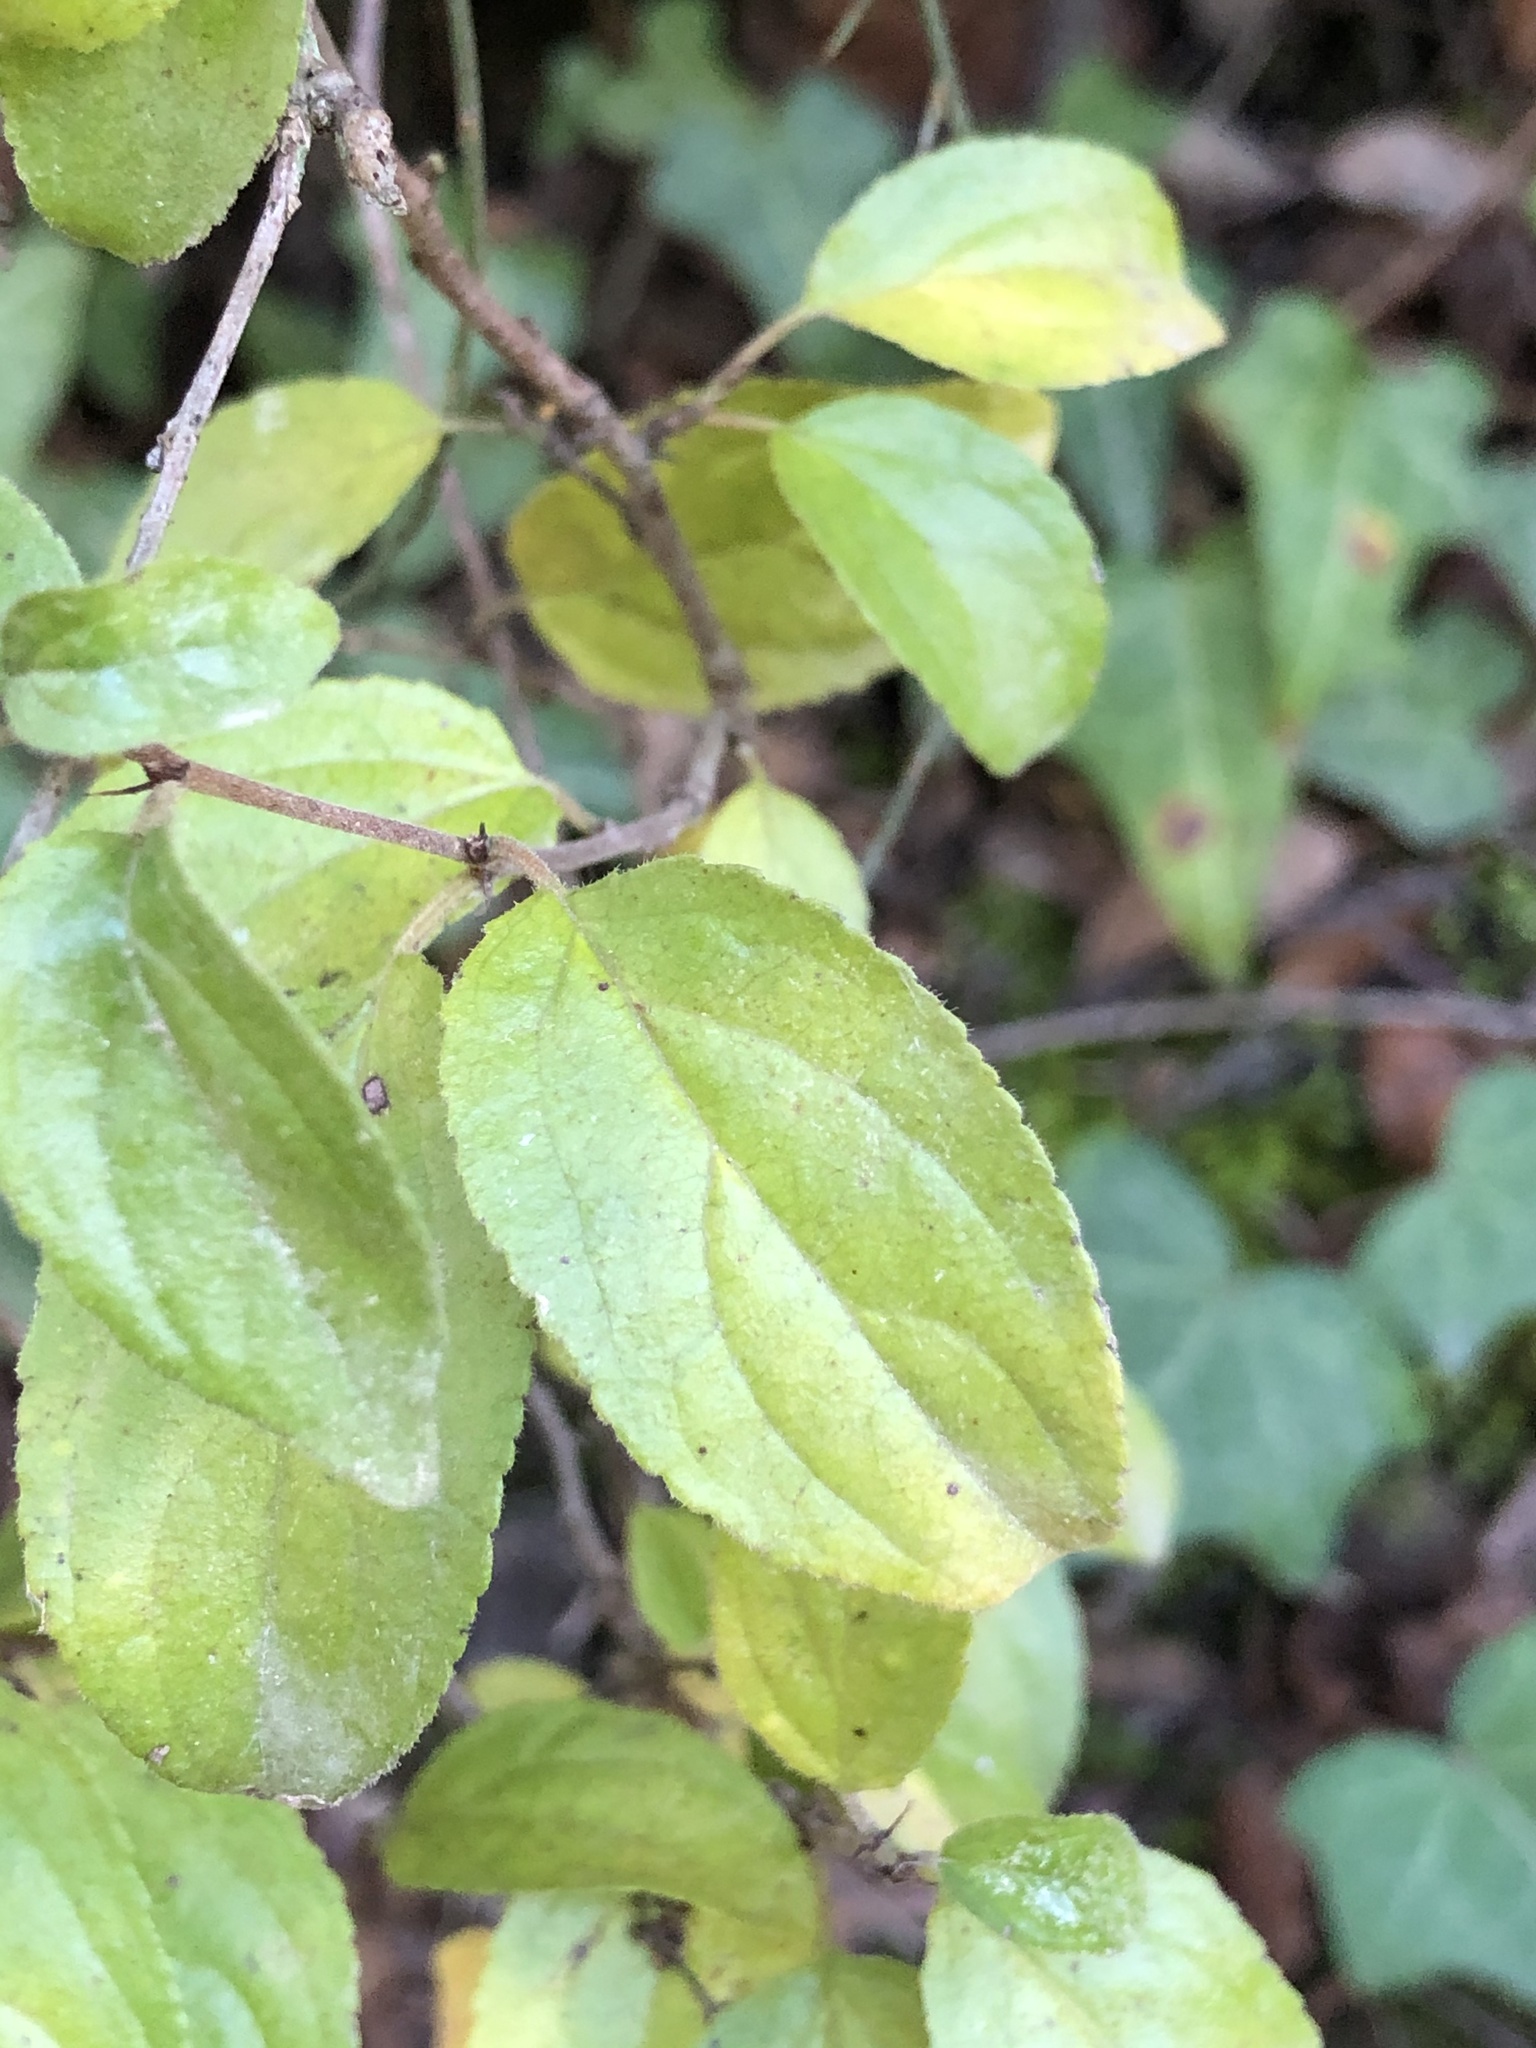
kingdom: Plantae
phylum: Tracheophyta
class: Magnoliopsida
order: Rosales
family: Rhamnaceae
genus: Rhamnus
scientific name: Rhamnus saxatilis
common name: Rock buckthorn
